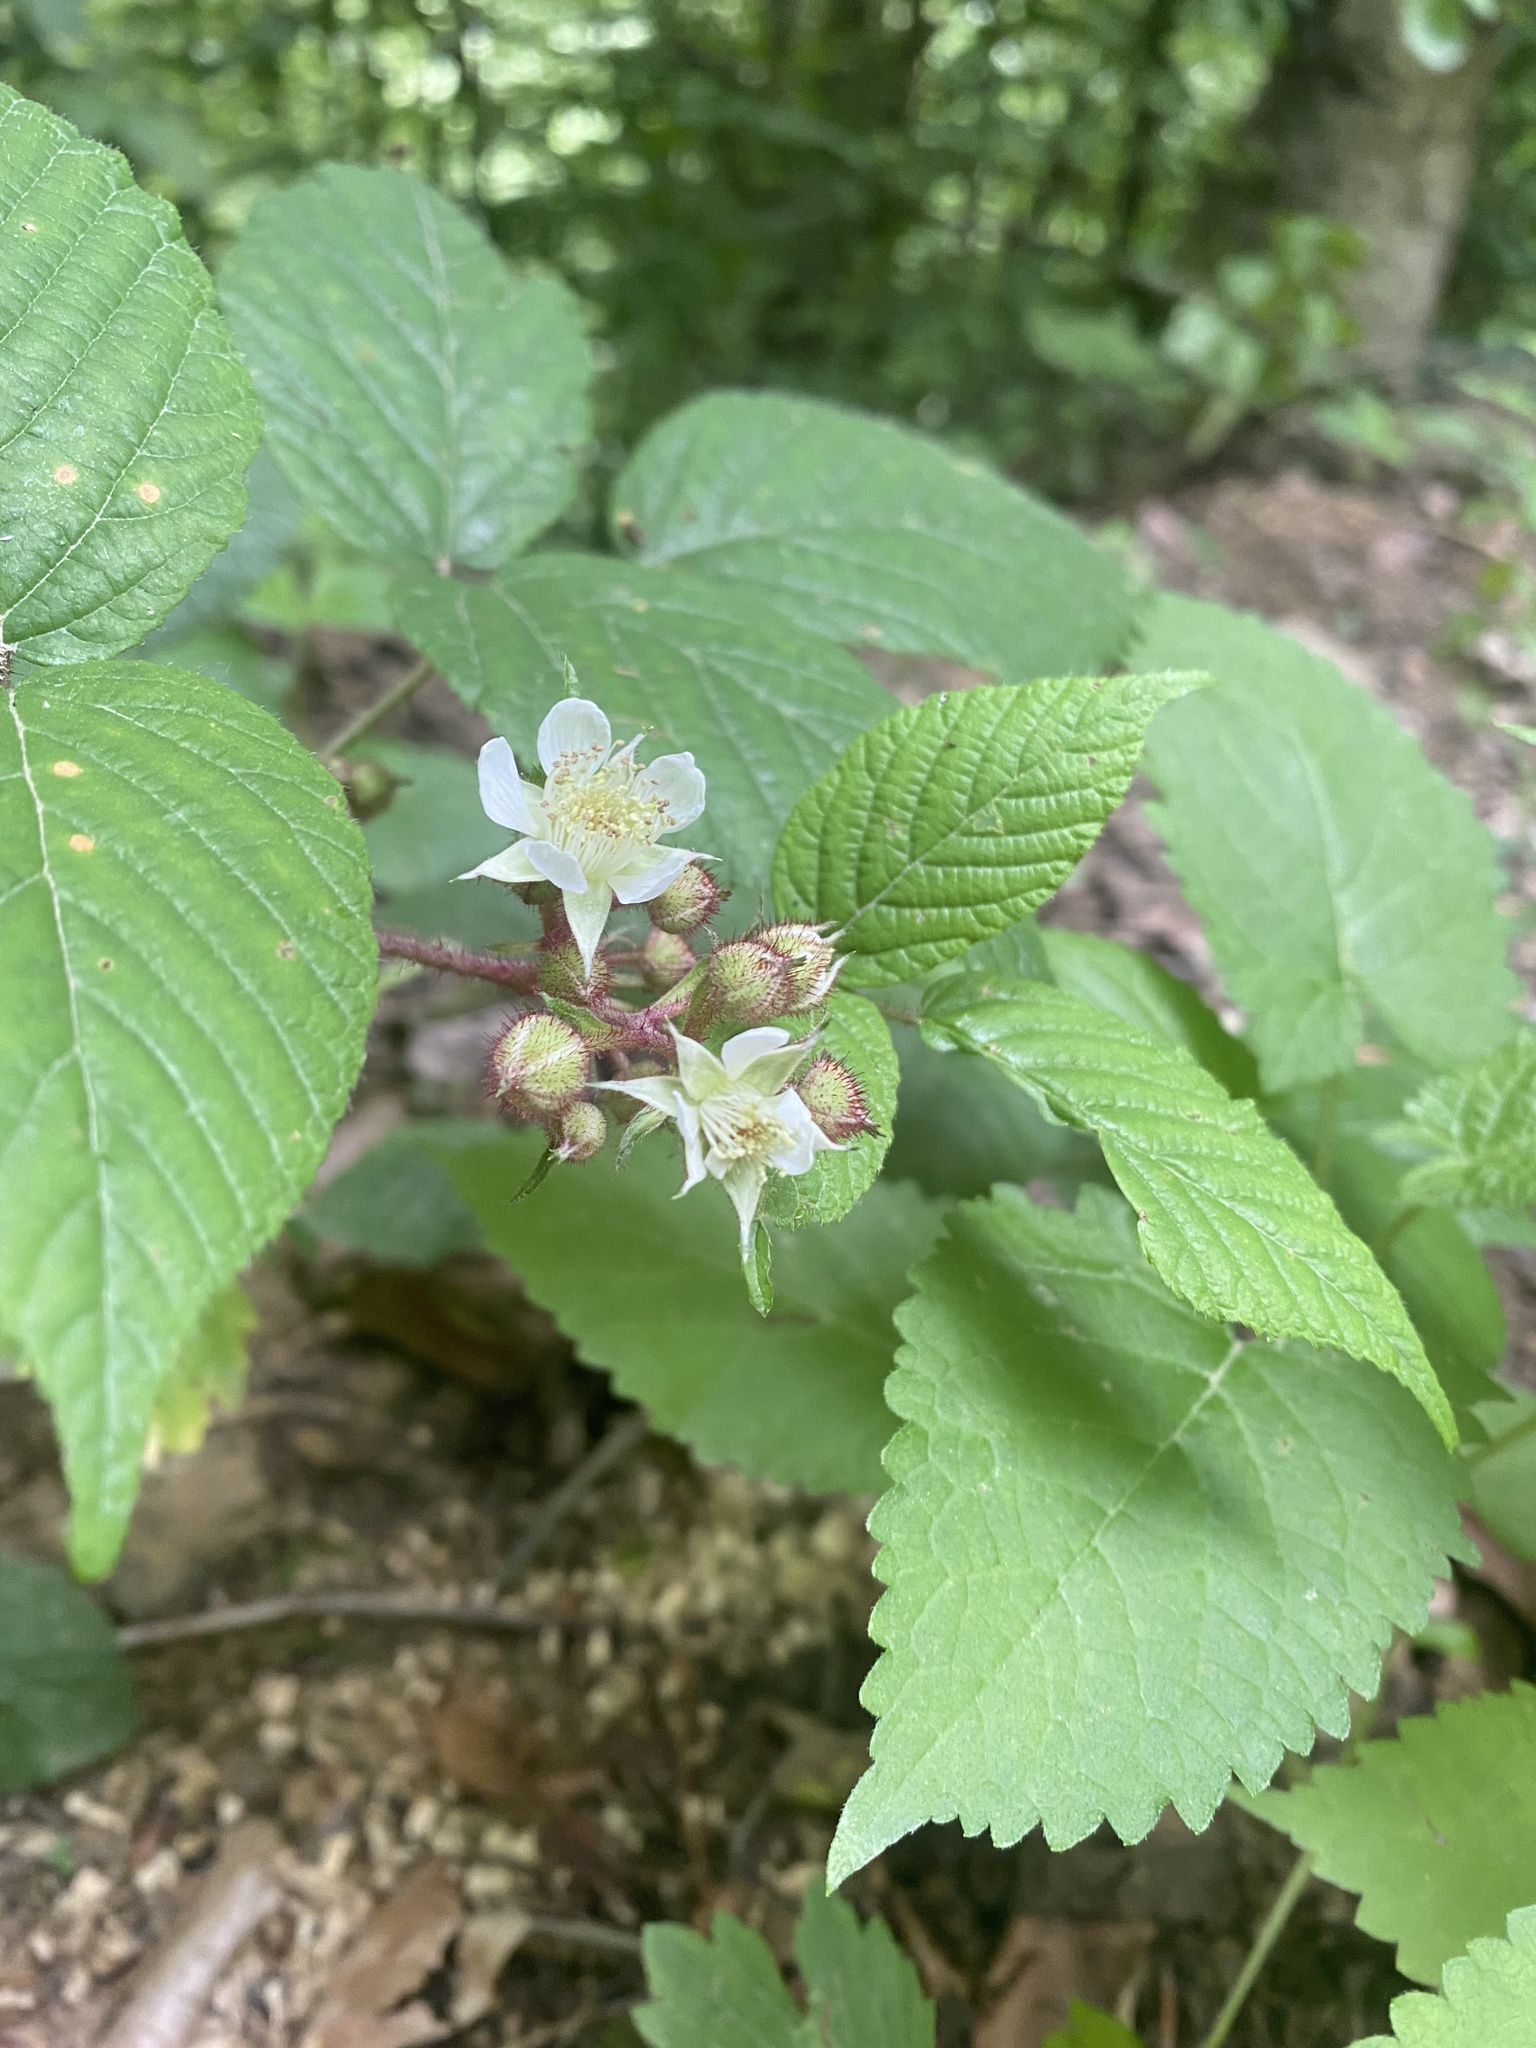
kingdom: Plantae
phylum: Tracheophyta
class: Magnoliopsida
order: Rosales
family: Rosaceae
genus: Rubus
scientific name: Rubus hirtus
